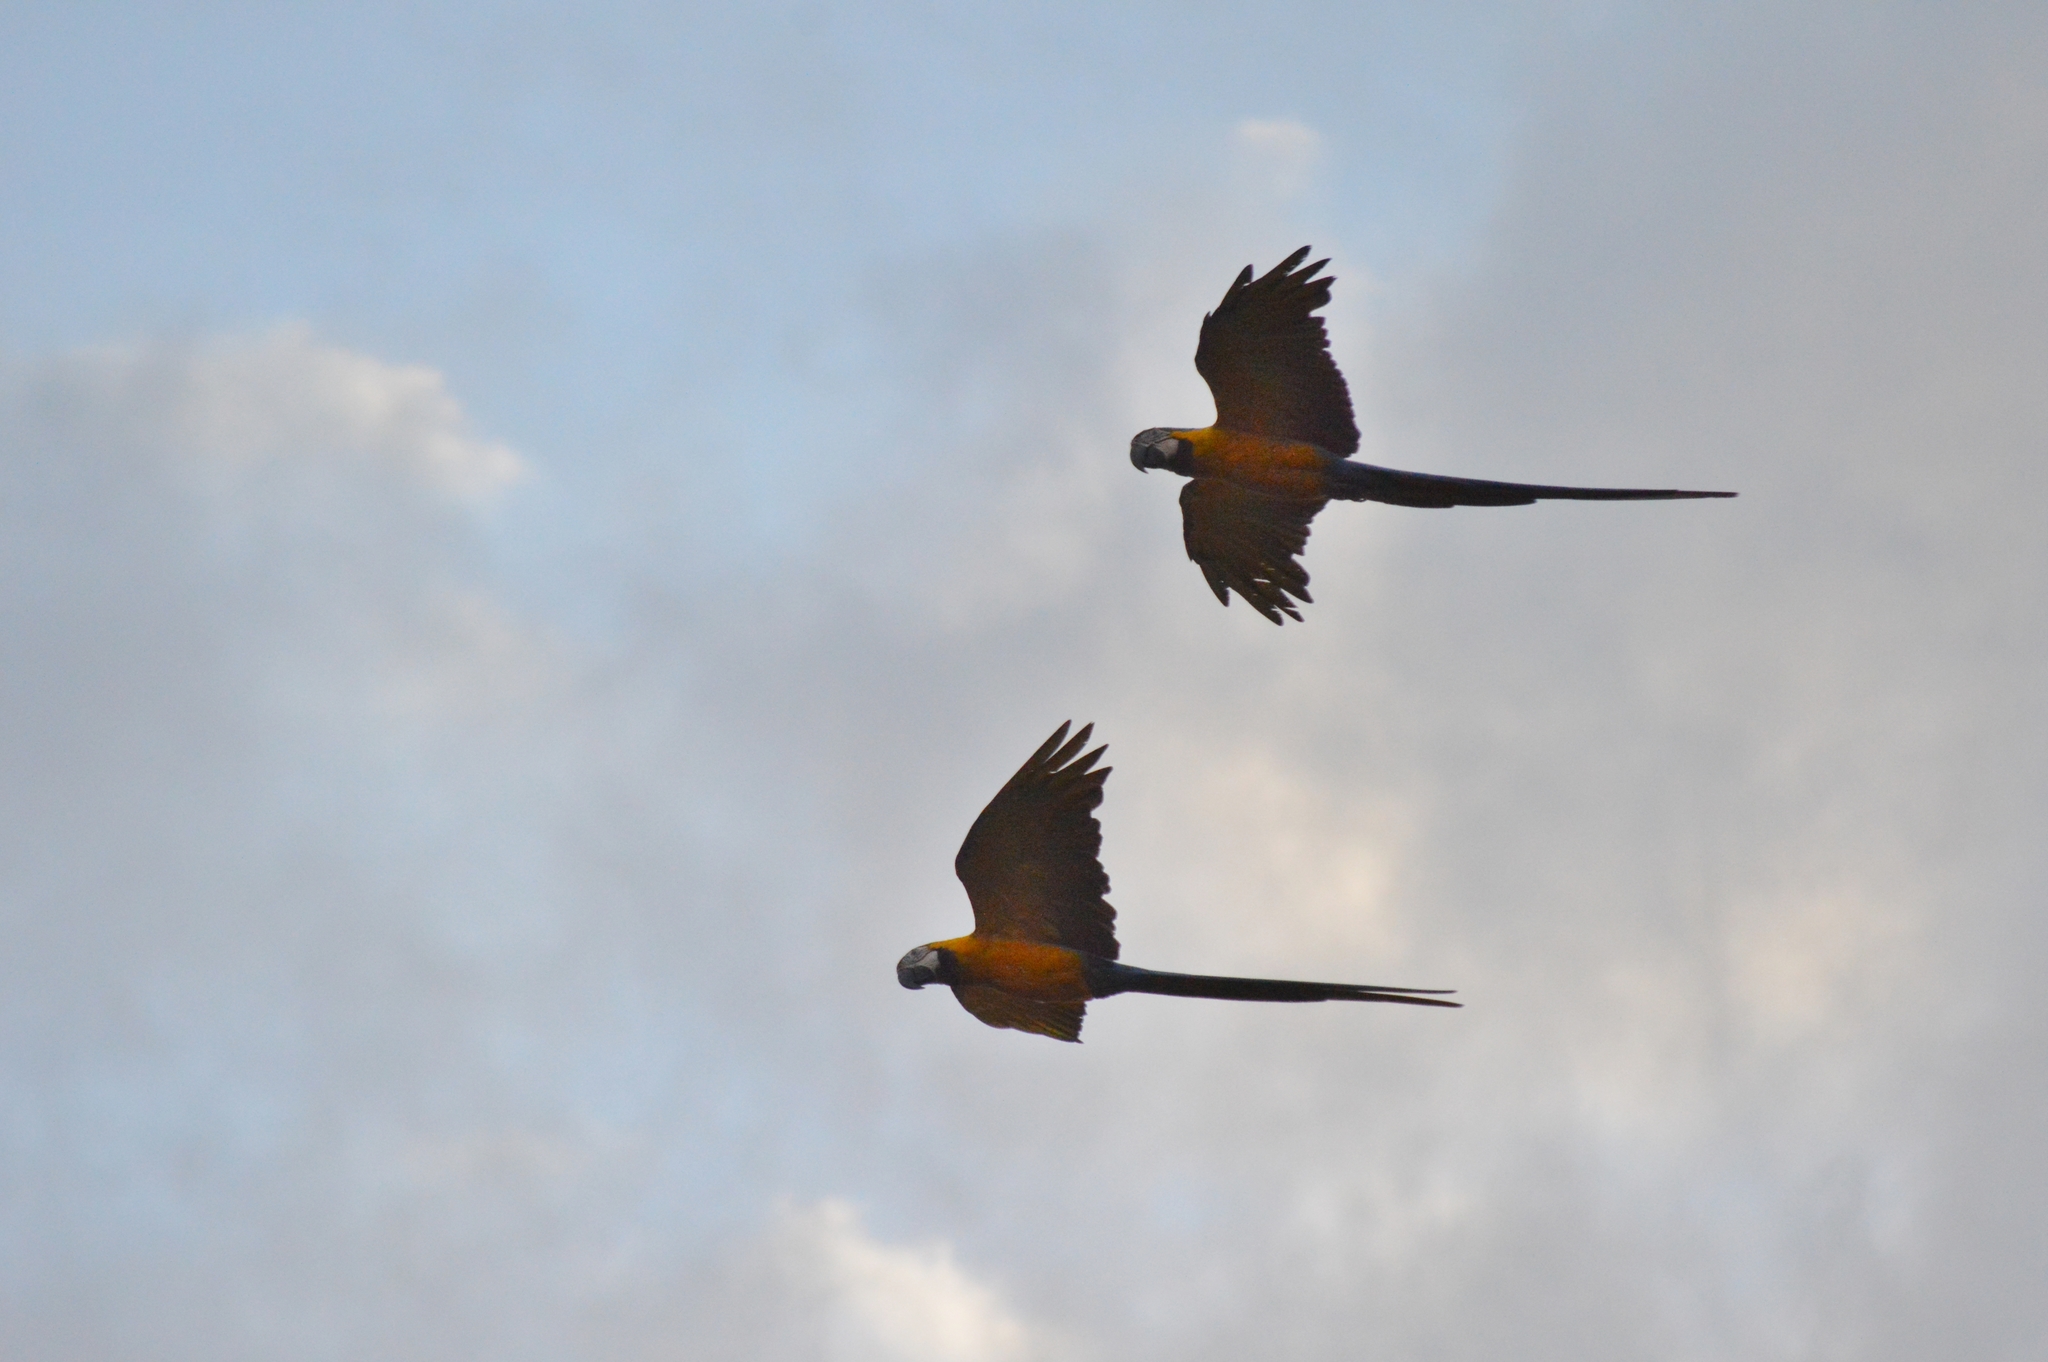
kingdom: Animalia
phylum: Chordata
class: Aves
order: Psittaciformes
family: Psittacidae
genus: Ara
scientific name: Ara ararauna
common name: Blue-and-yellow macaw
